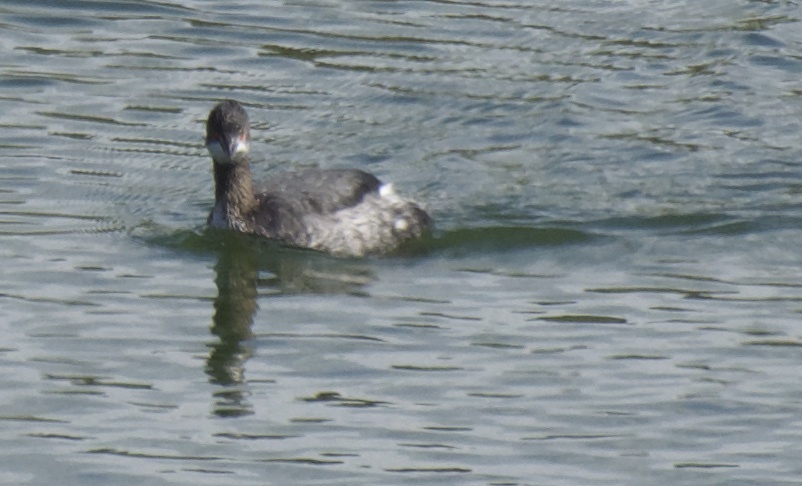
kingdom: Animalia
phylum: Chordata
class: Aves
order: Podicipediformes
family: Podicipedidae
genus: Podiceps
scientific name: Podiceps nigricollis
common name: Black-necked grebe
